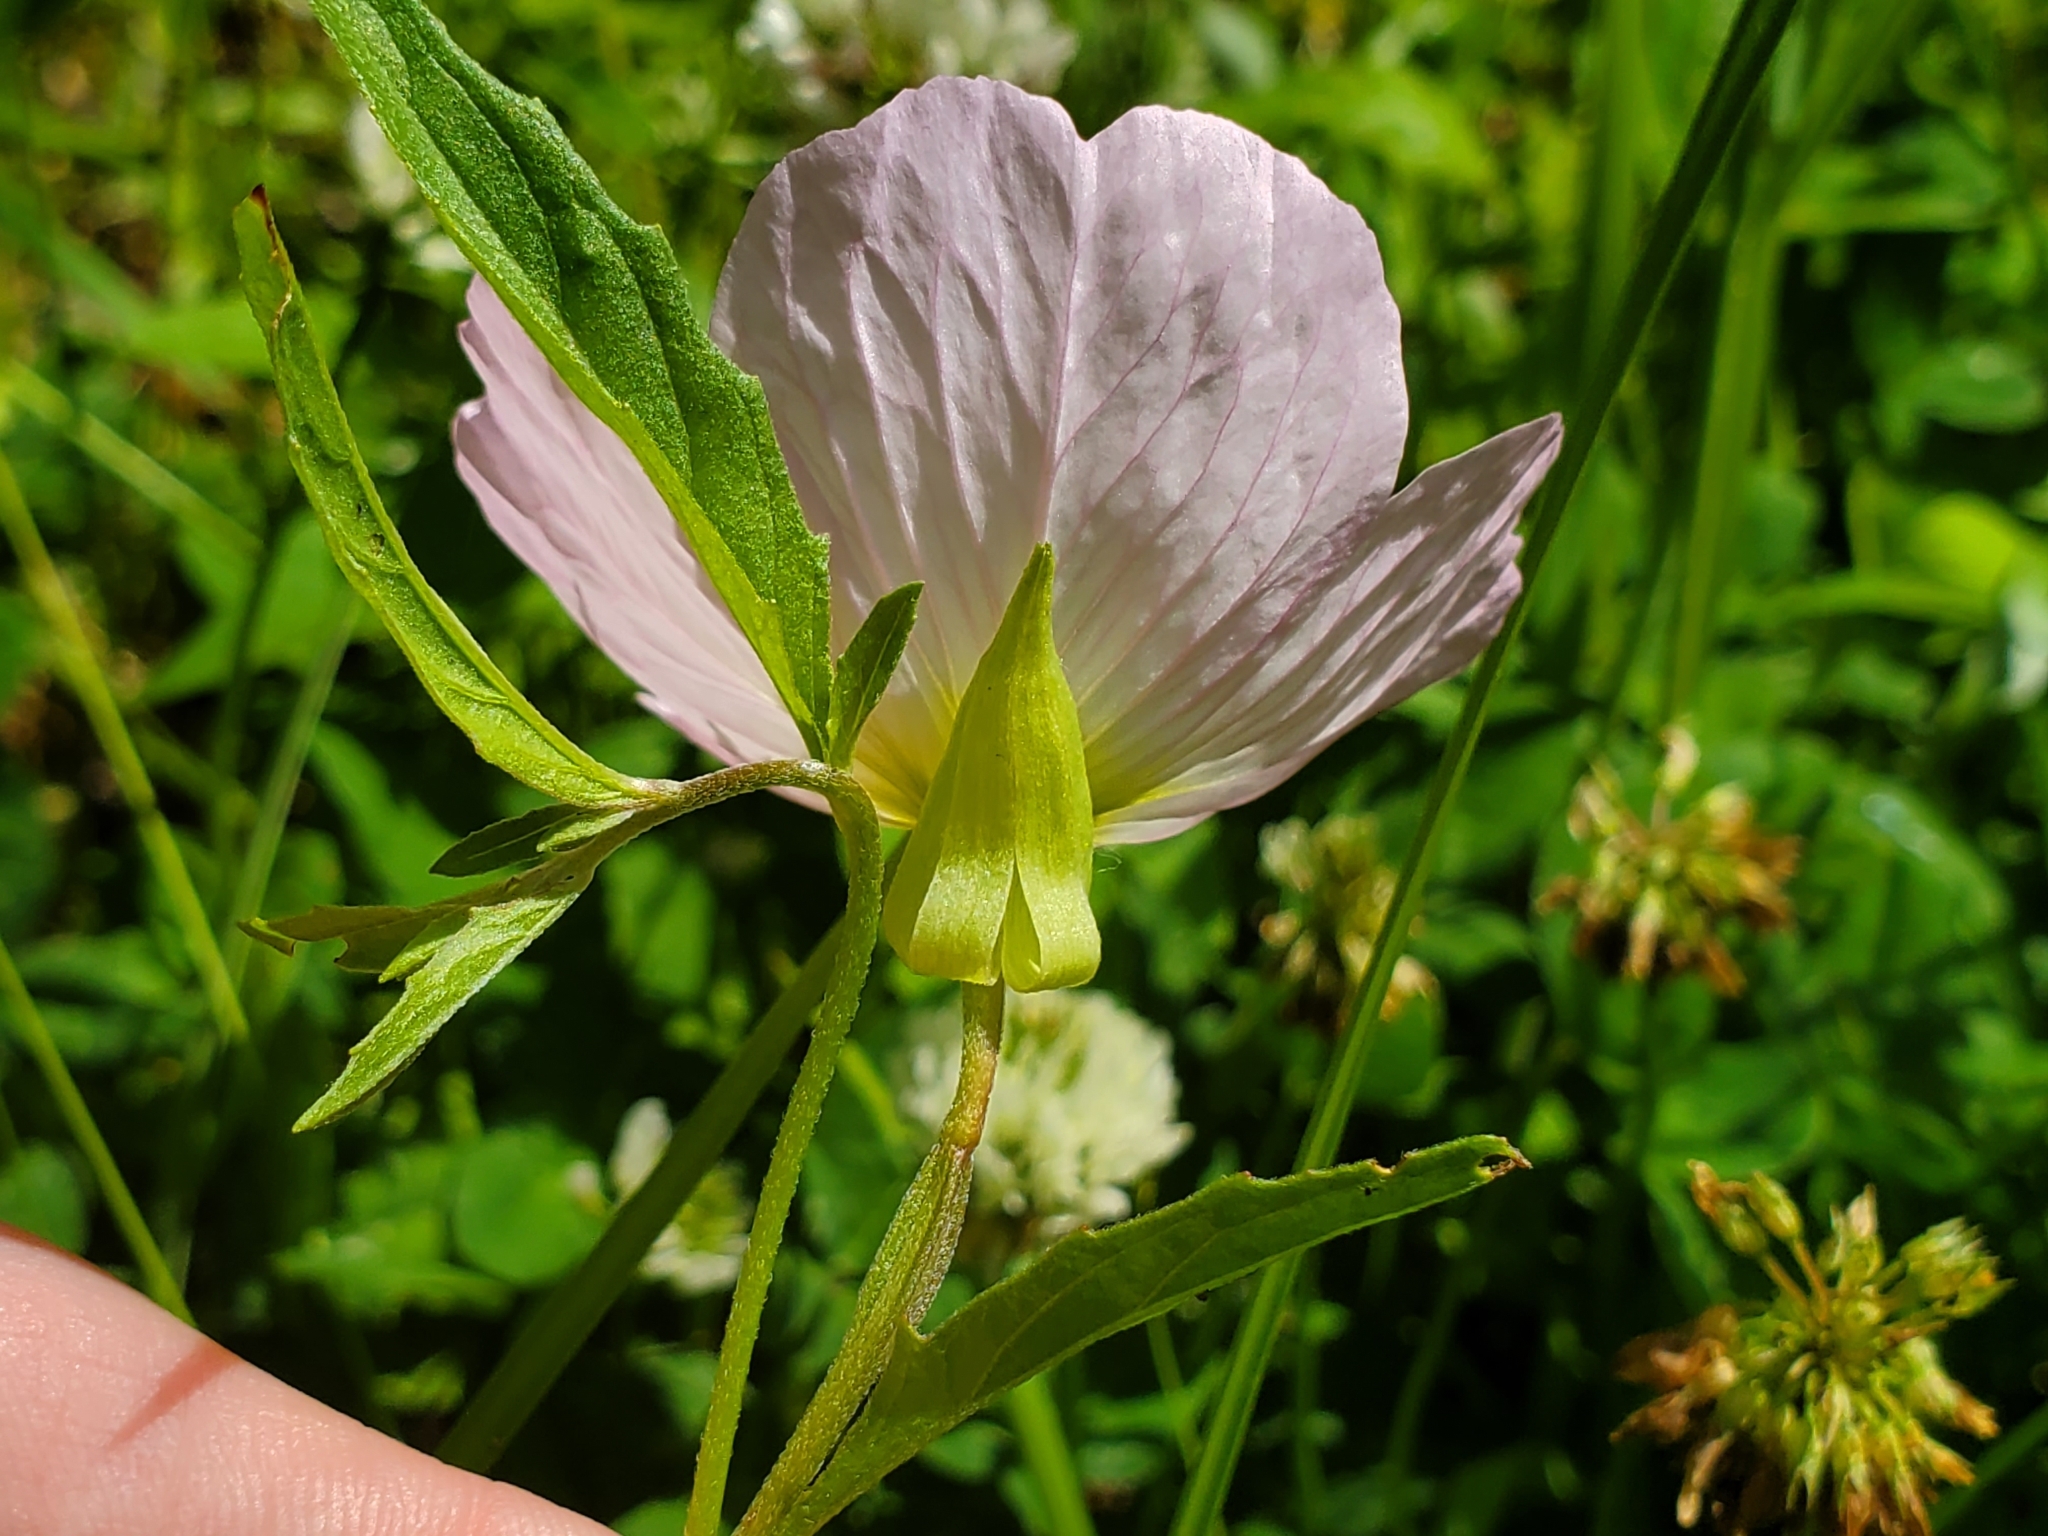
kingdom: Plantae
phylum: Tracheophyta
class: Magnoliopsida
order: Myrtales
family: Onagraceae
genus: Oenothera
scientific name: Oenothera speciosa
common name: White evening-primrose
